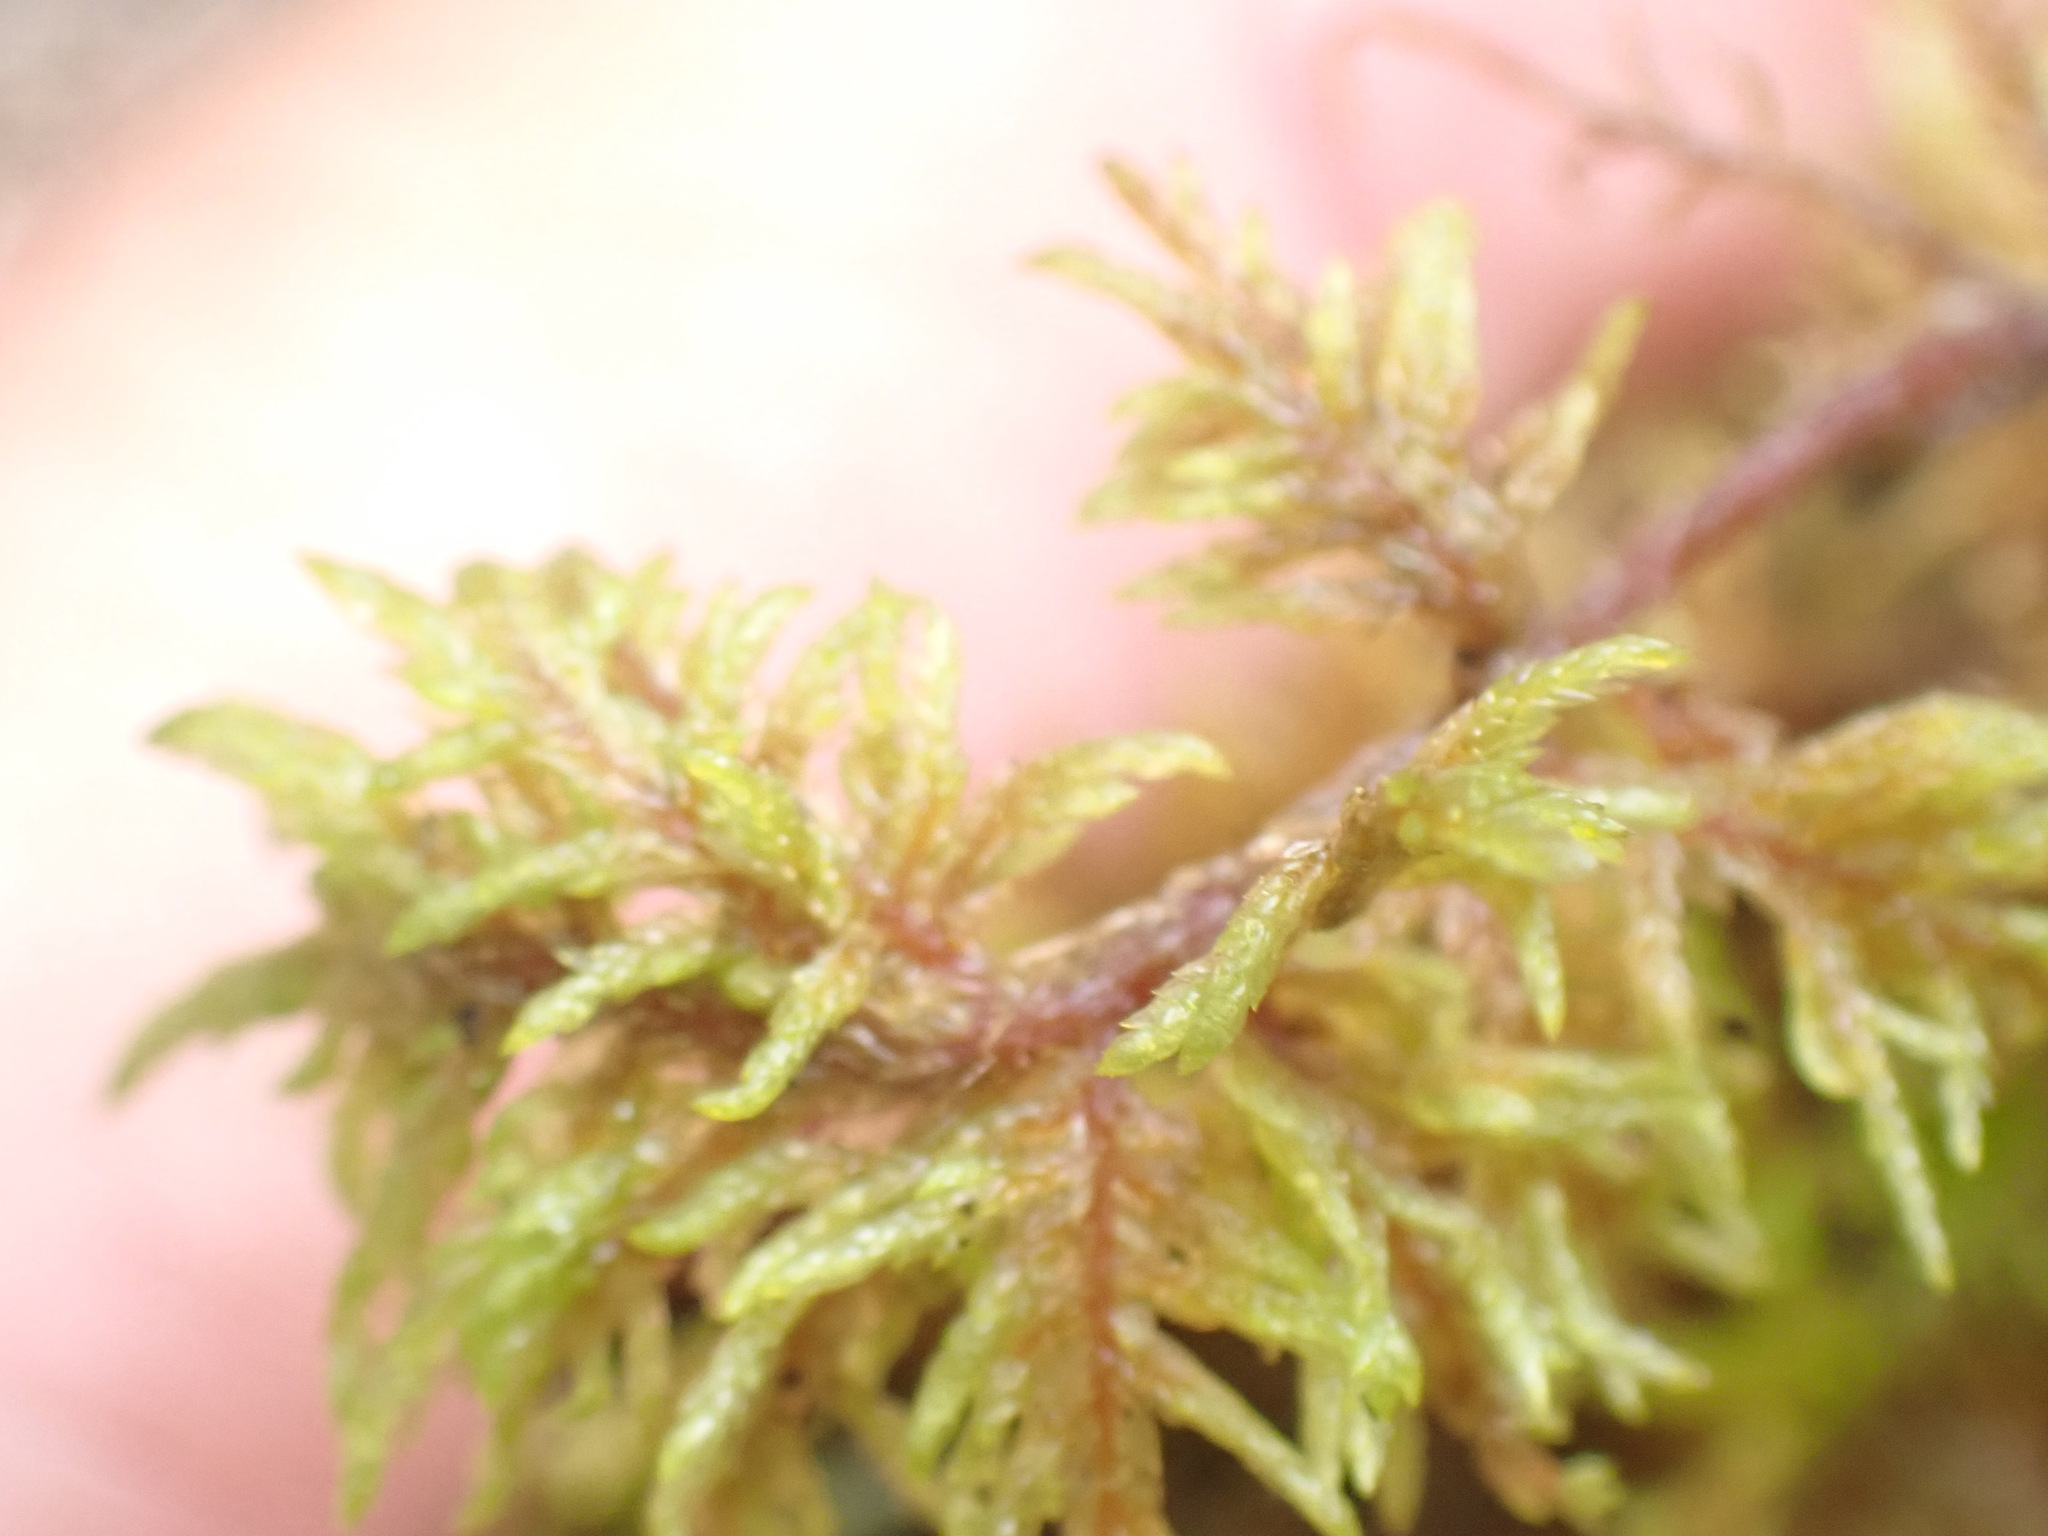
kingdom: Plantae
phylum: Bryophyta
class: Bryopsida
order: Hypnales
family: Hylocomiaceae
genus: Hylocomium
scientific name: Hylocomium splendens
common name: Stairstep moss
